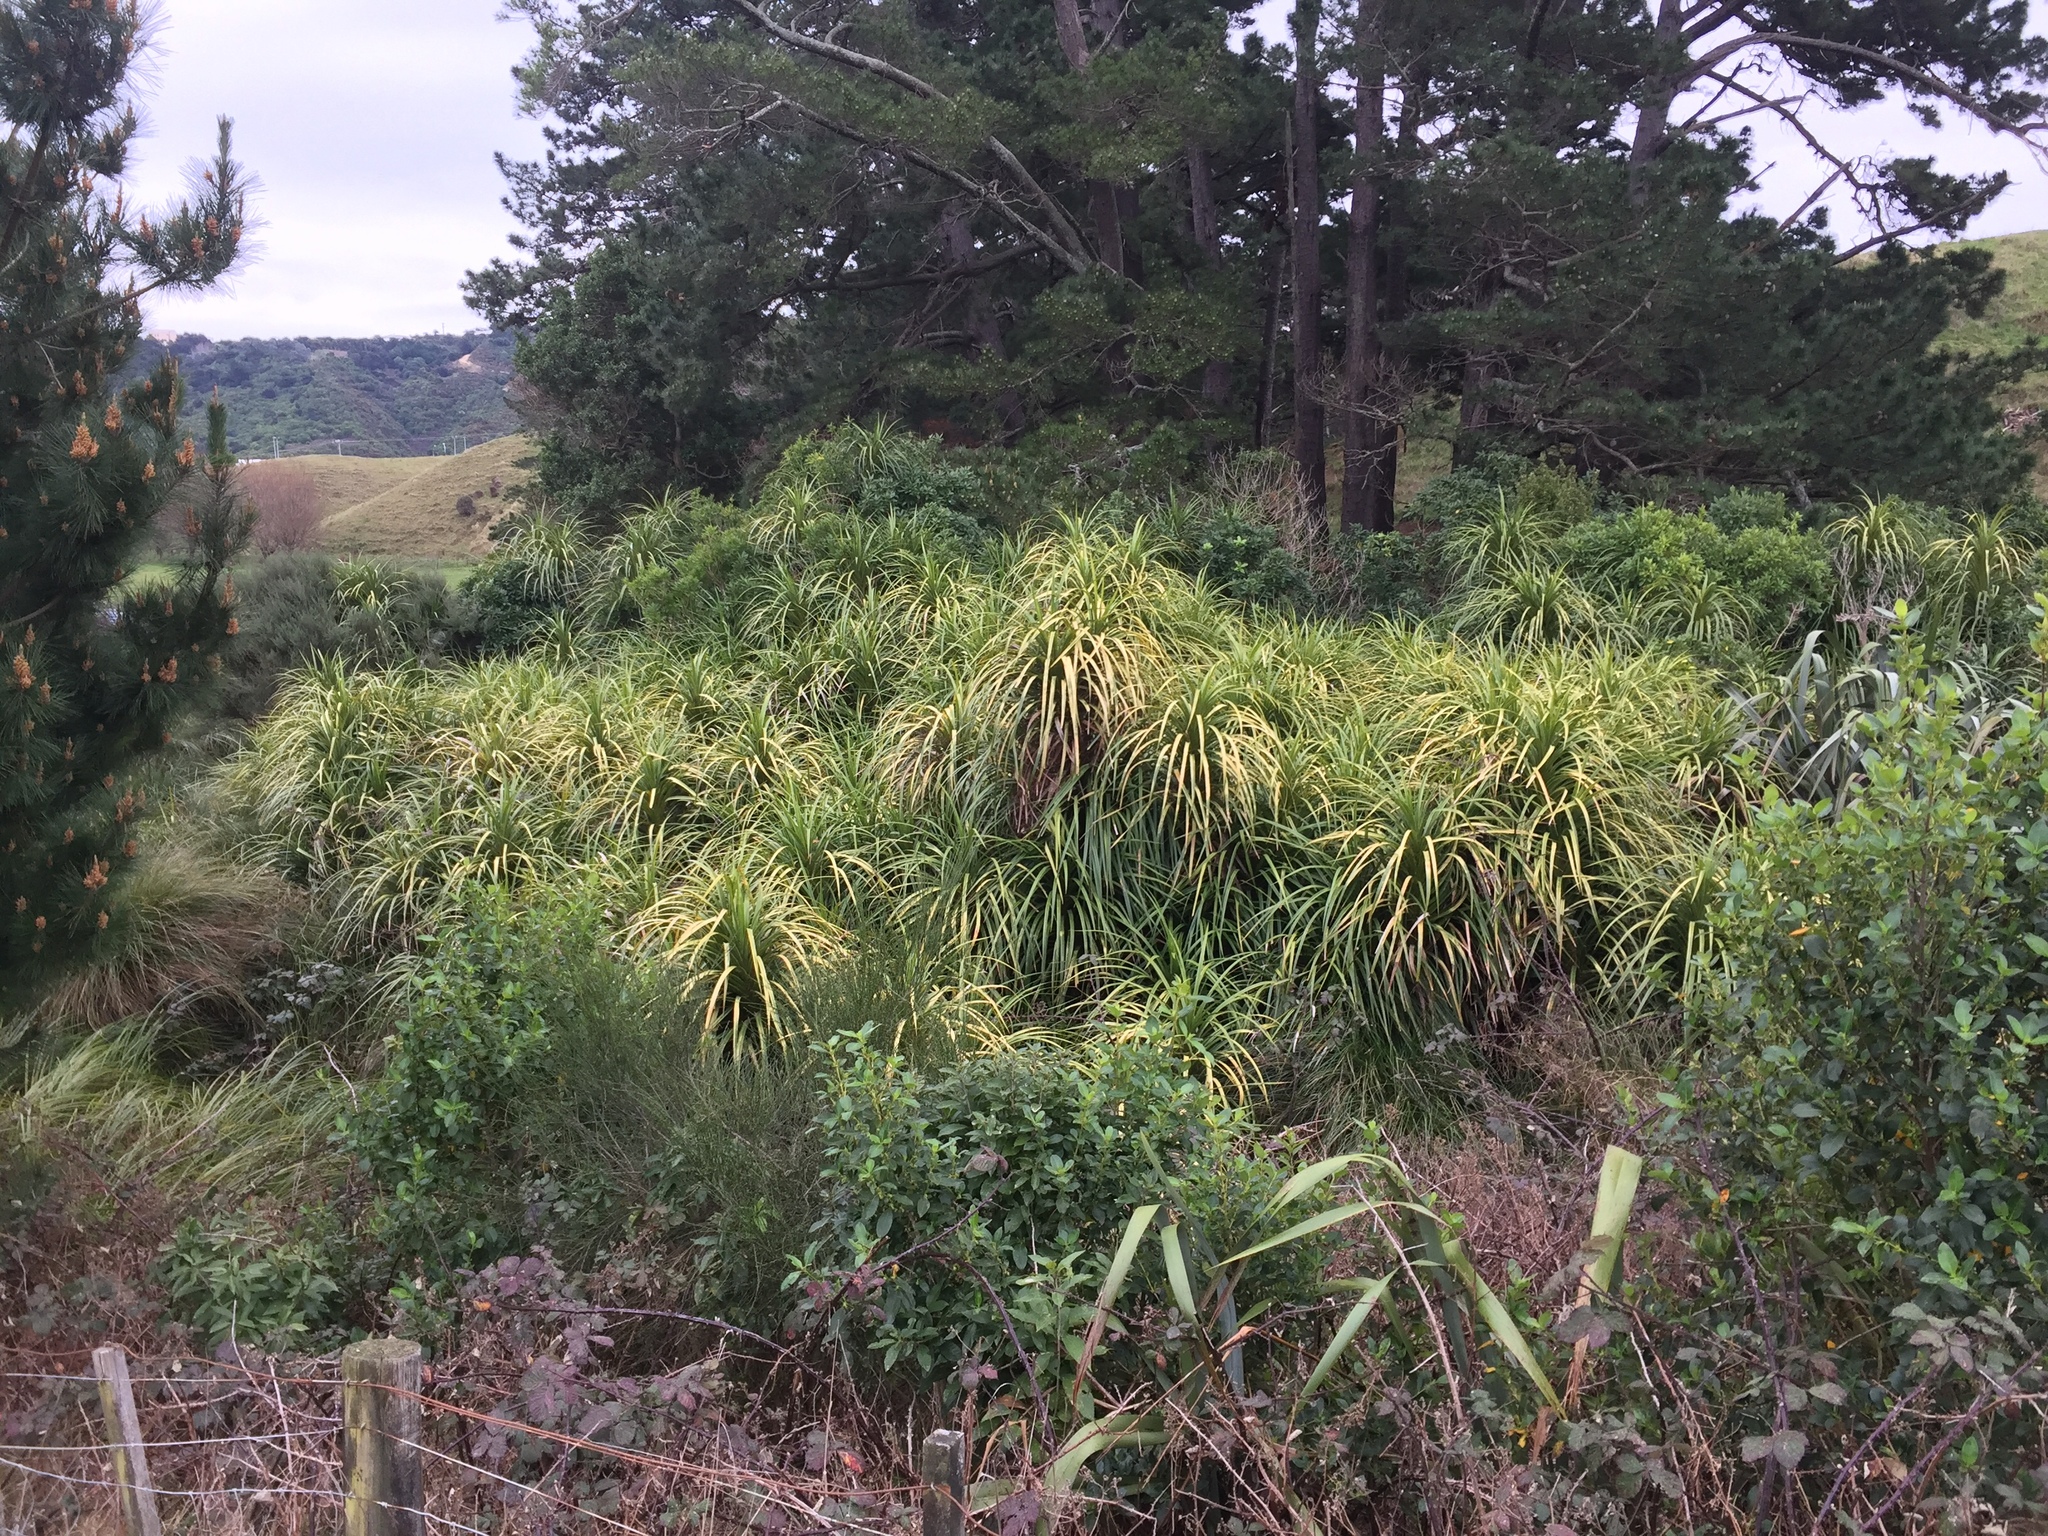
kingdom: Plantae
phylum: Tracheophyta
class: Liliopsida
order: Pandanales
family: Pandanaceae
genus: Freycinetia
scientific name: Freycinetia banksii
